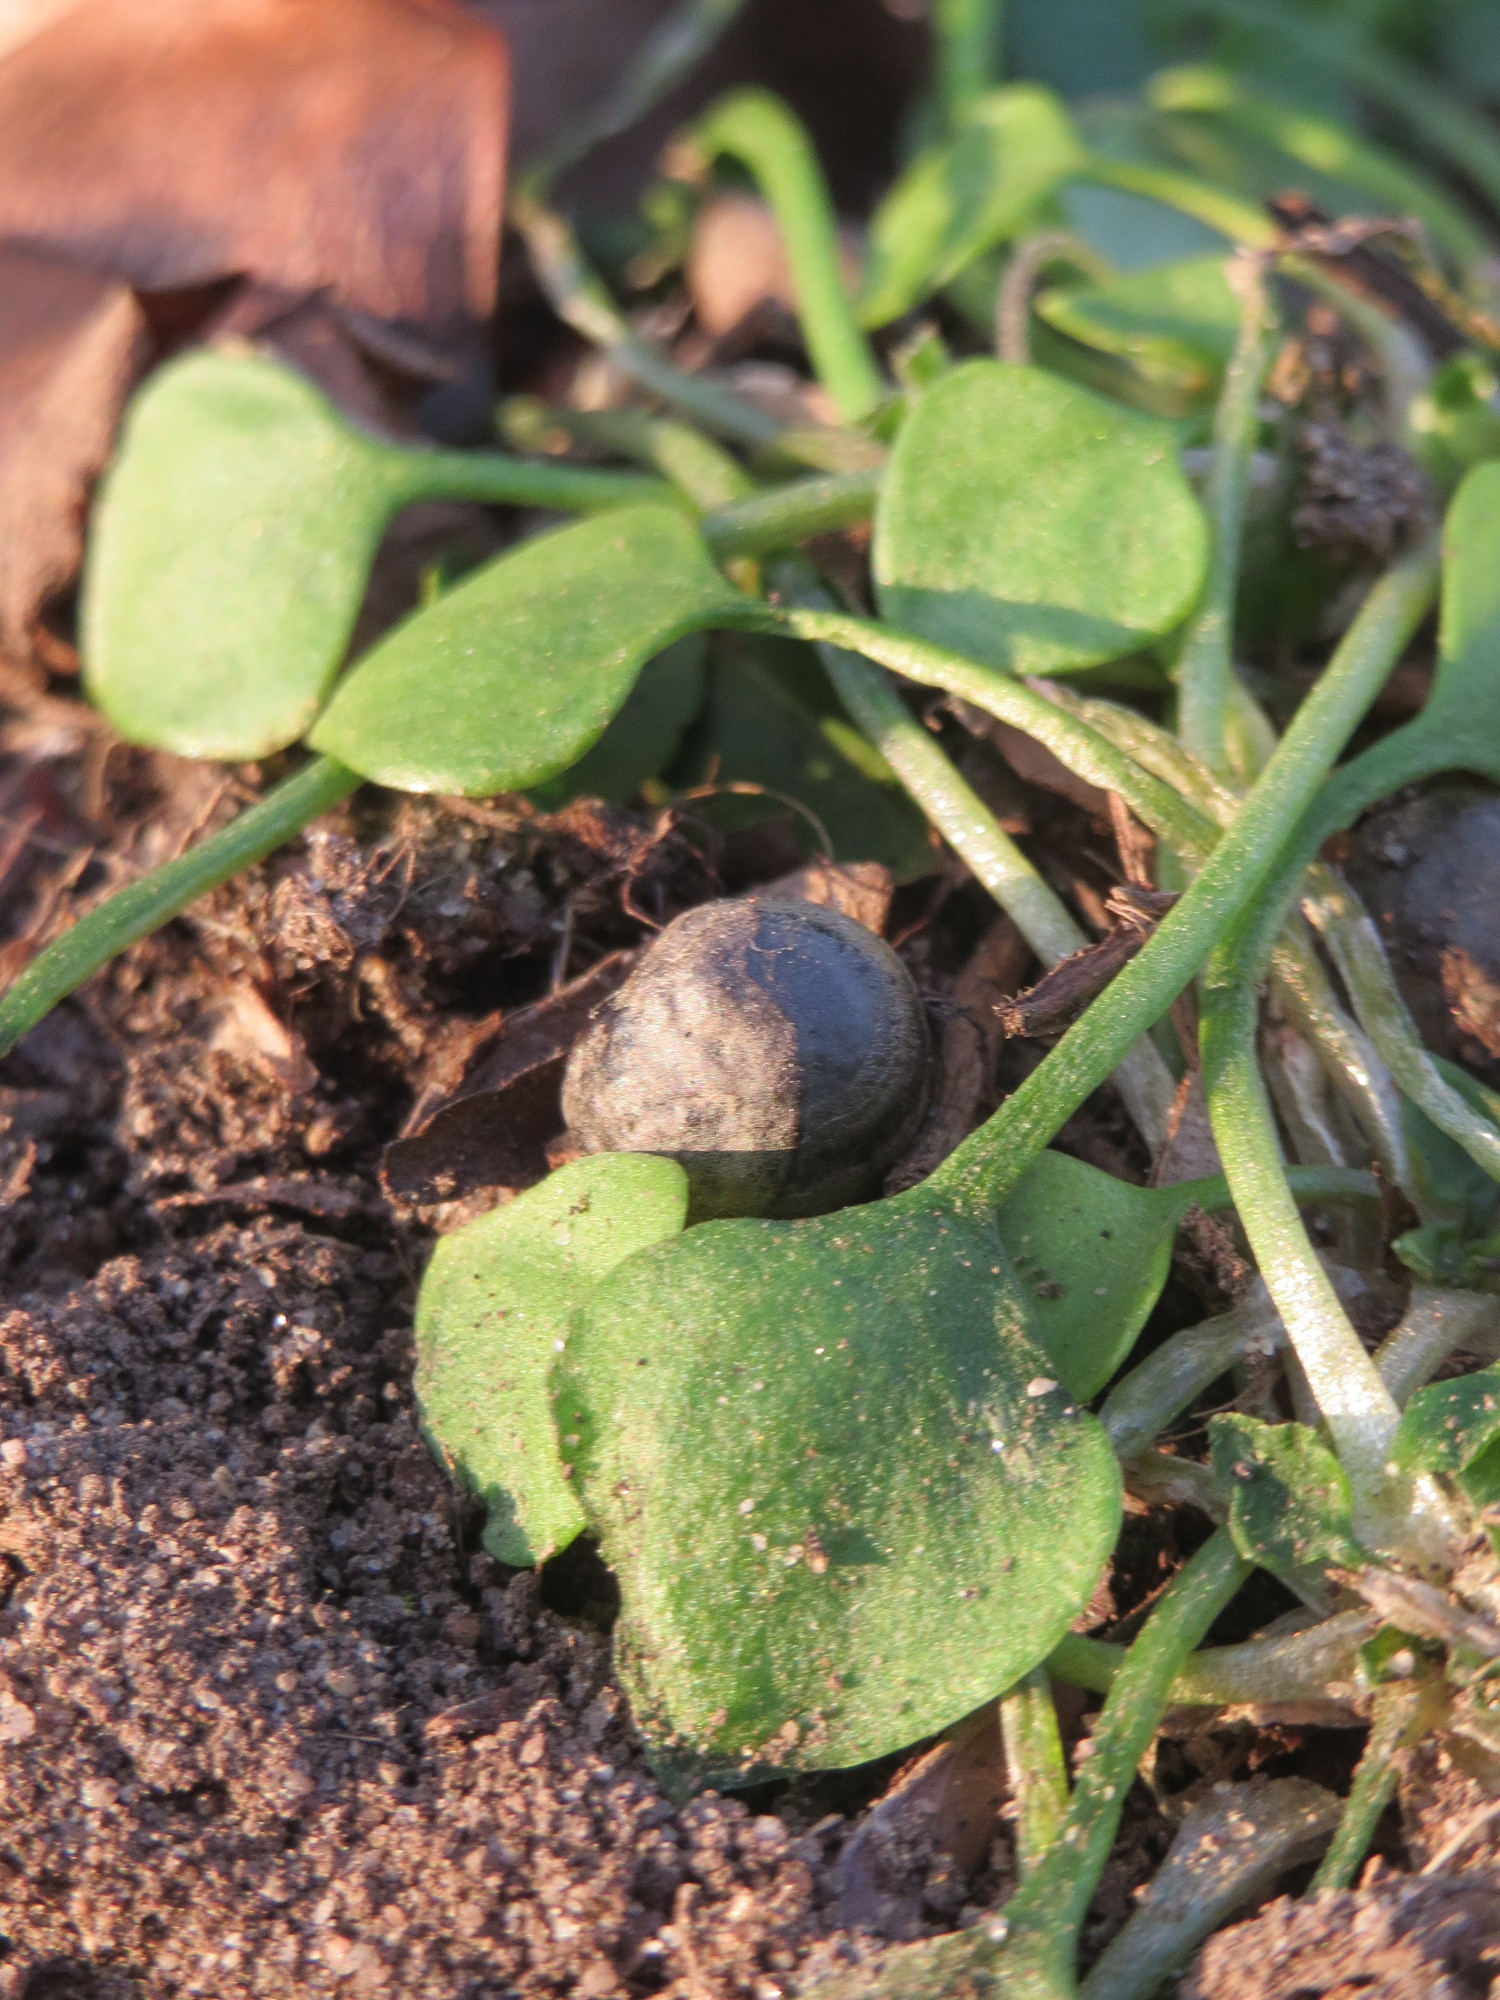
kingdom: Plantae
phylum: Tracheophyta
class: Magnoliopsida
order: Caryophyllales
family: Montiaceae
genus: Claytonia
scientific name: Claytonia perfoliata
